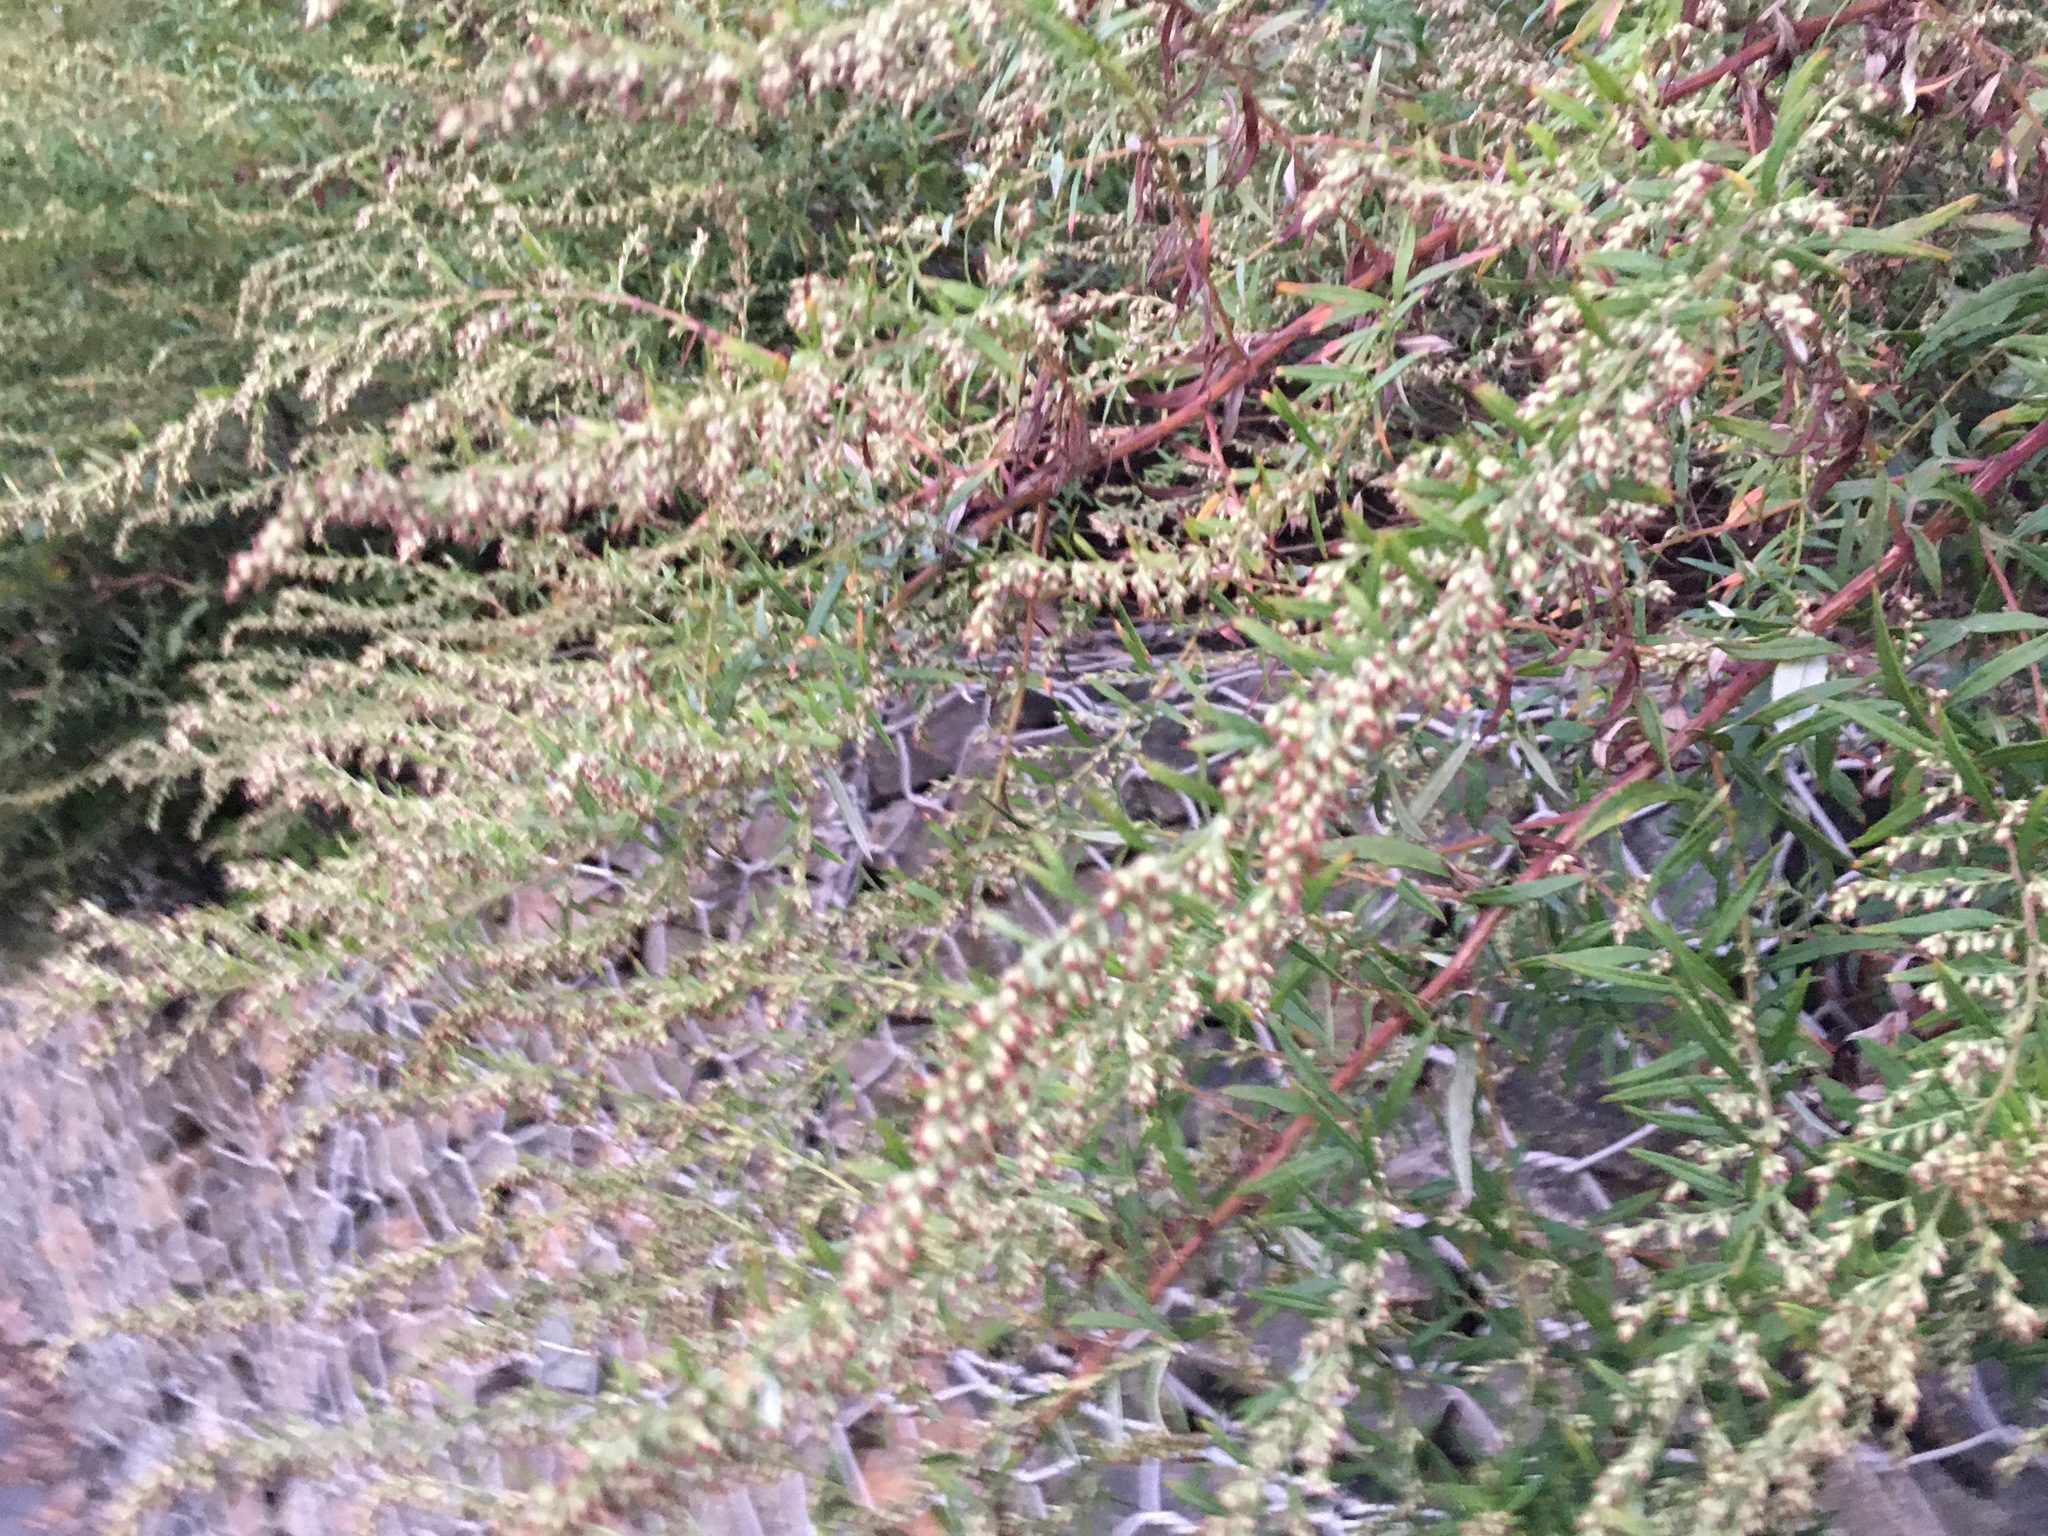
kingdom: Plantae
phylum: Tracheophyta
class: Magnoliopsida
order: Asterales
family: Asteraceae
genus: Artemisia
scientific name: Artemisia vulgaris
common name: Mugwort
